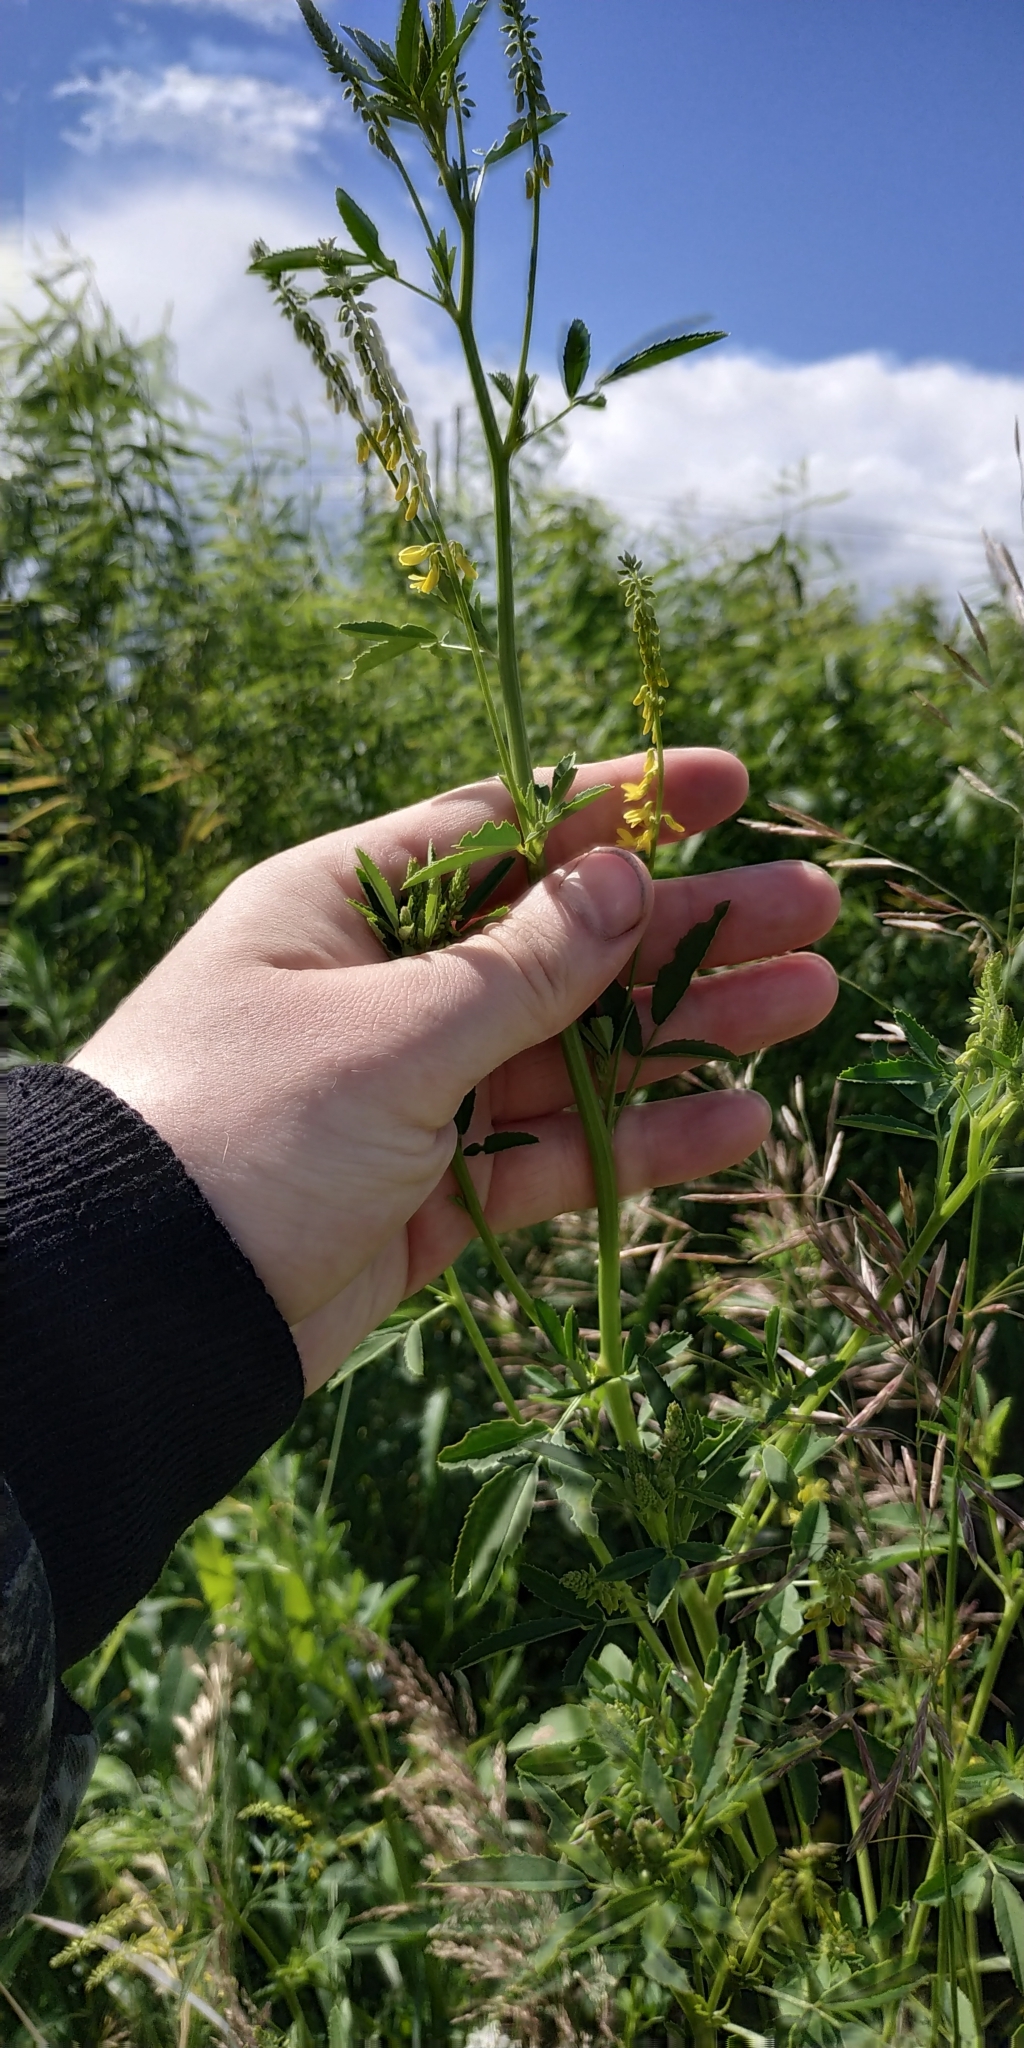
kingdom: Plantae
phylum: Tracheophyta
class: Magnoliopsida
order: Fabales
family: Fabaceae
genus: Melilotus
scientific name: Melilotus officinalis
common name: Sweetclover
